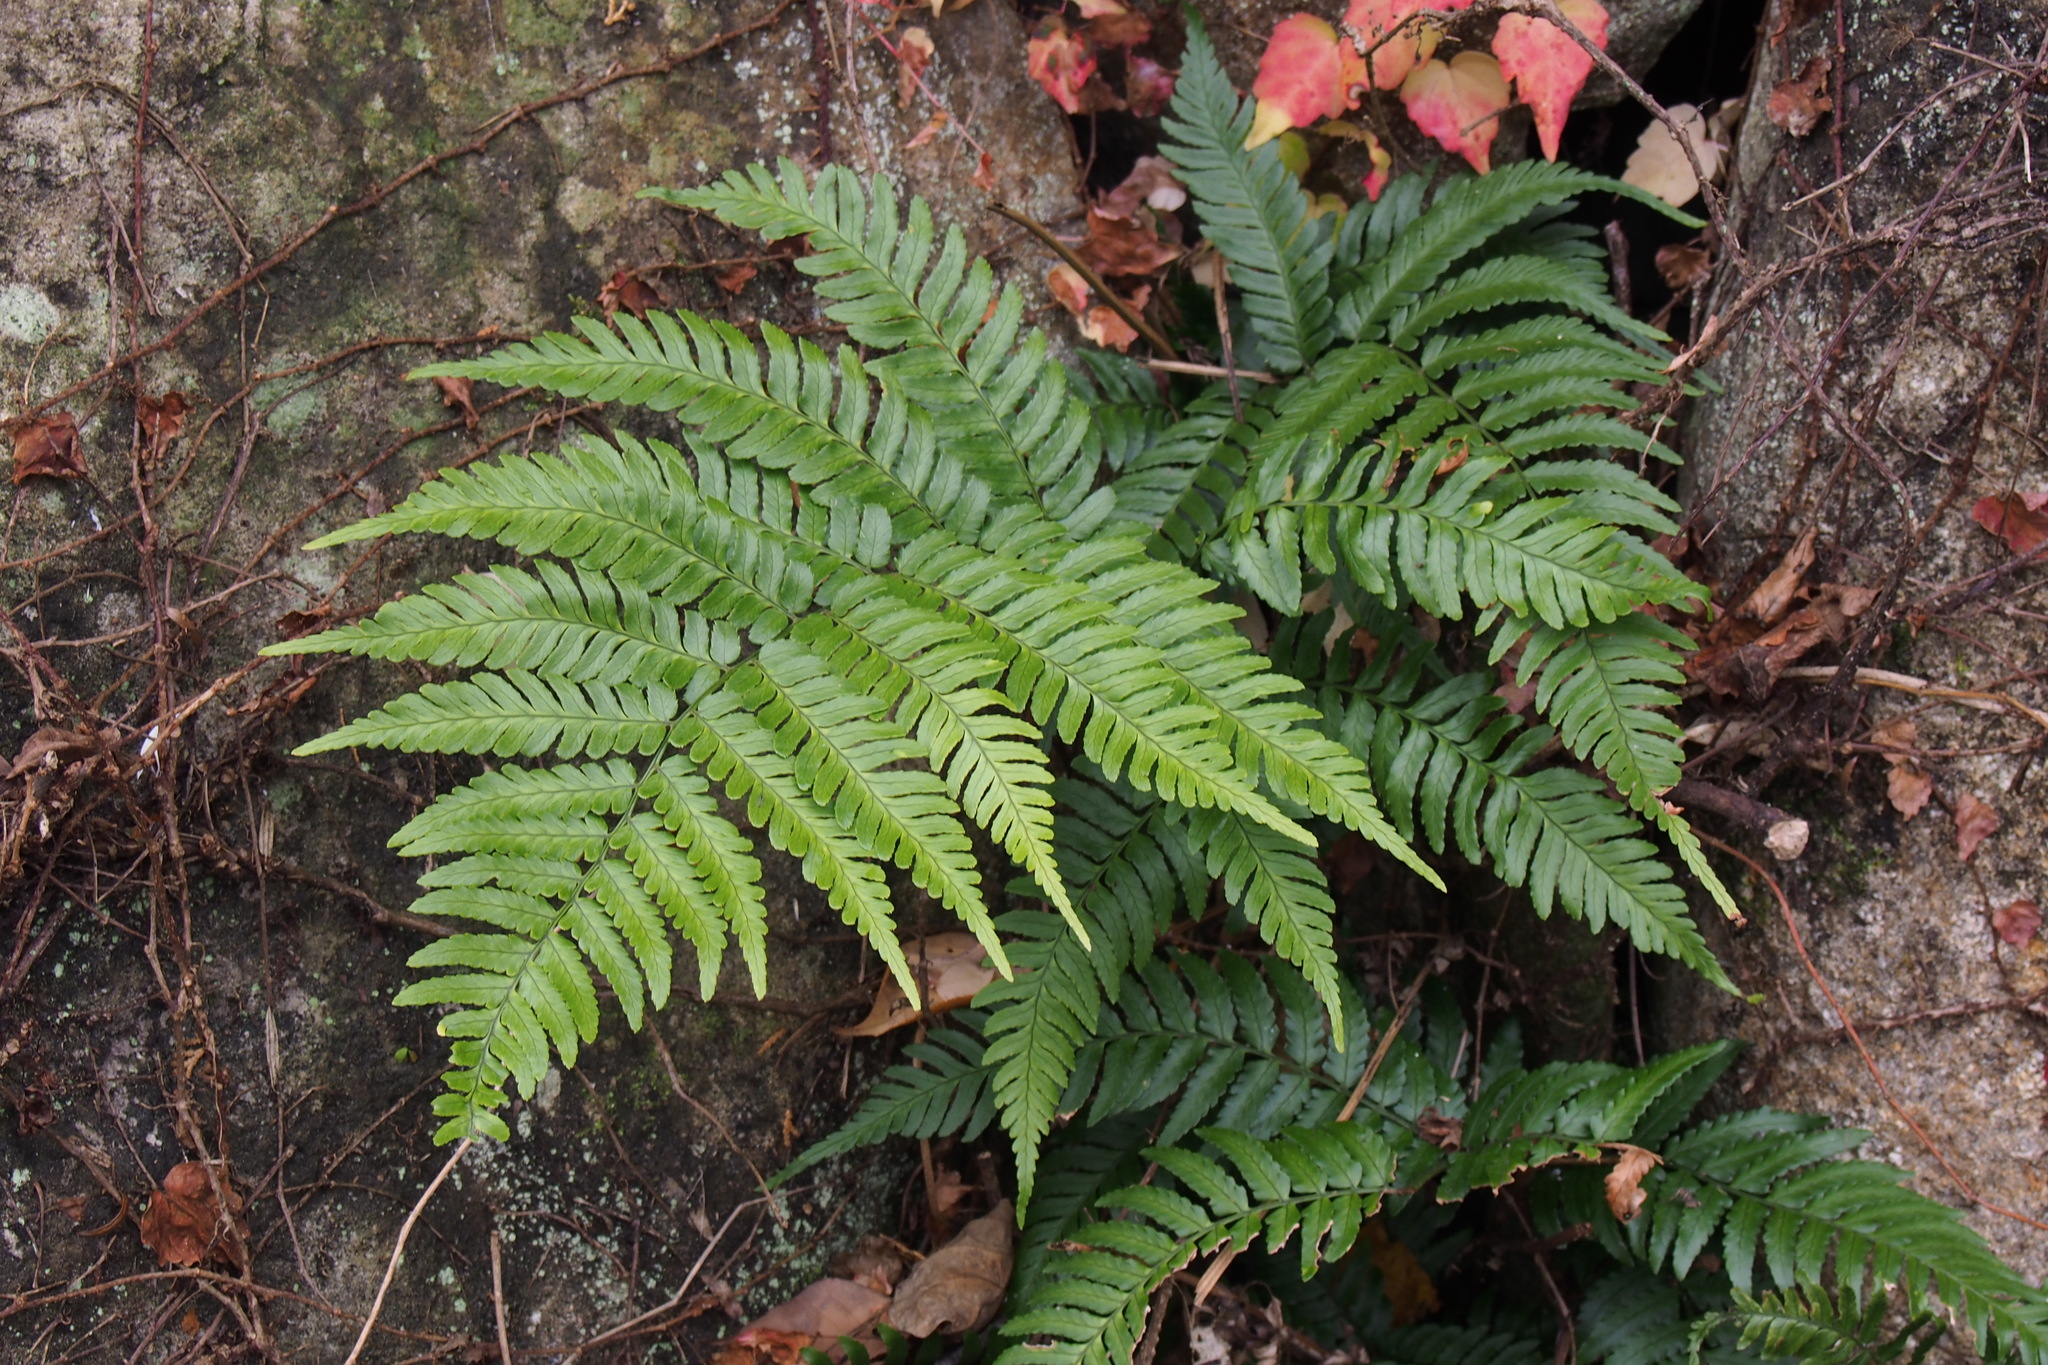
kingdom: Plantae
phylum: Tracheophyta
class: Polypodiopsida
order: Polypodiales
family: Dryopteridaceae
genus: Dryopteris
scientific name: Dryopteris erythrosora
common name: Autumn fern
